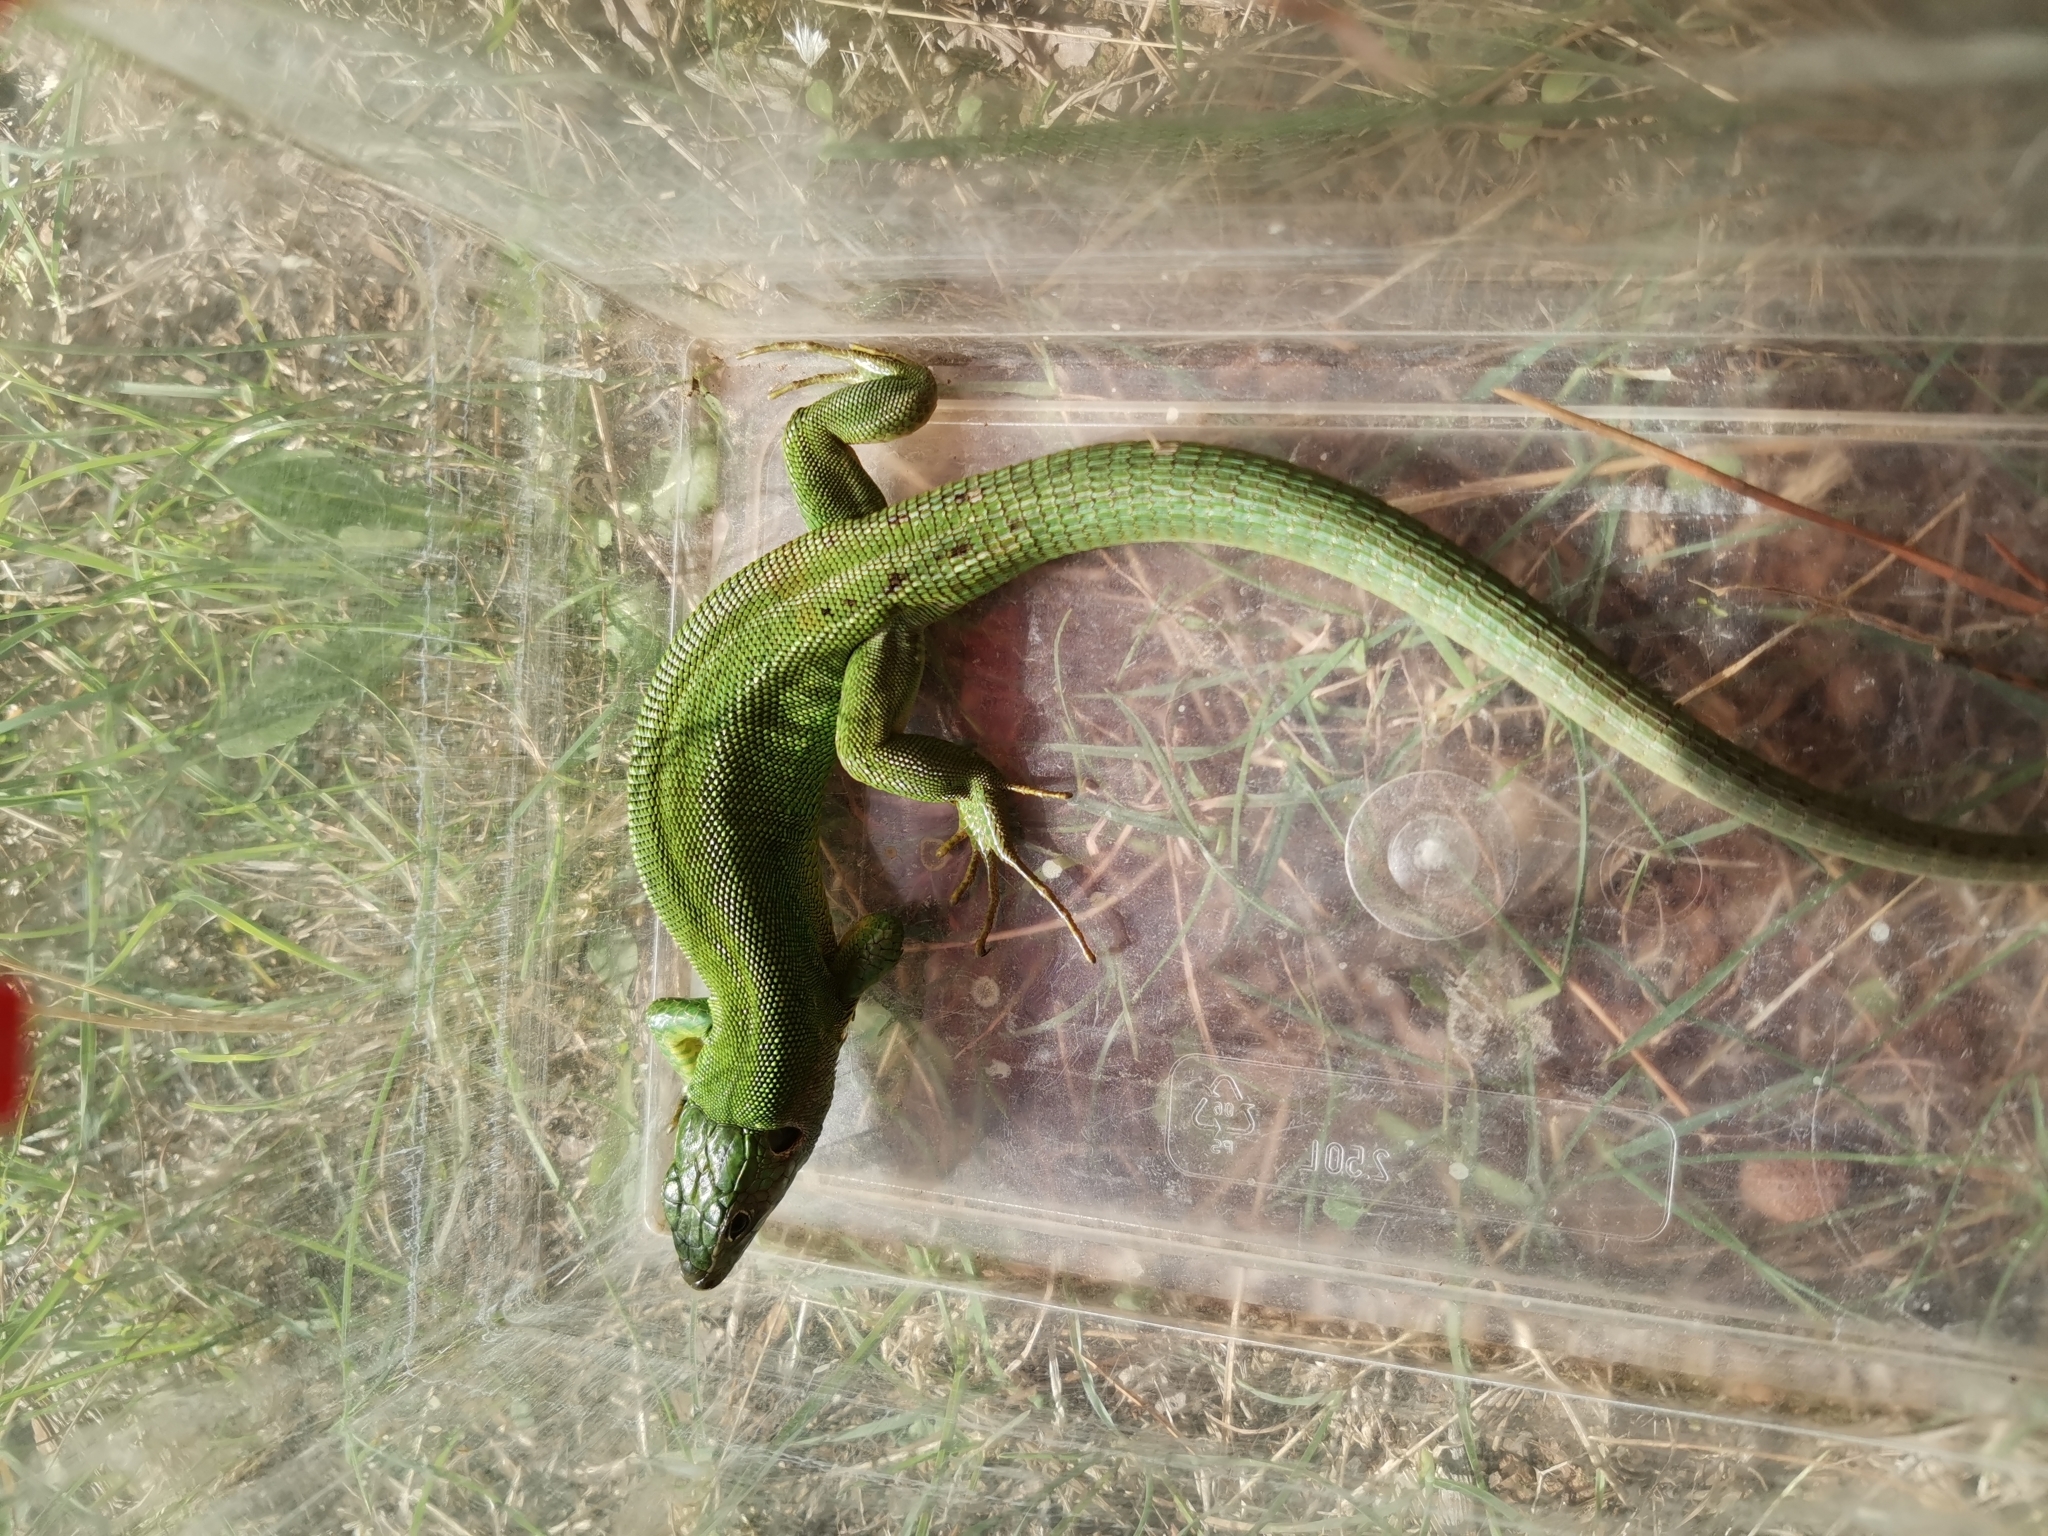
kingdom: Animalia
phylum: Chordata
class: Squamata
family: Lacertidae
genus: Lacerta
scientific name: Lacerta bilineata
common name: Western green lizard
